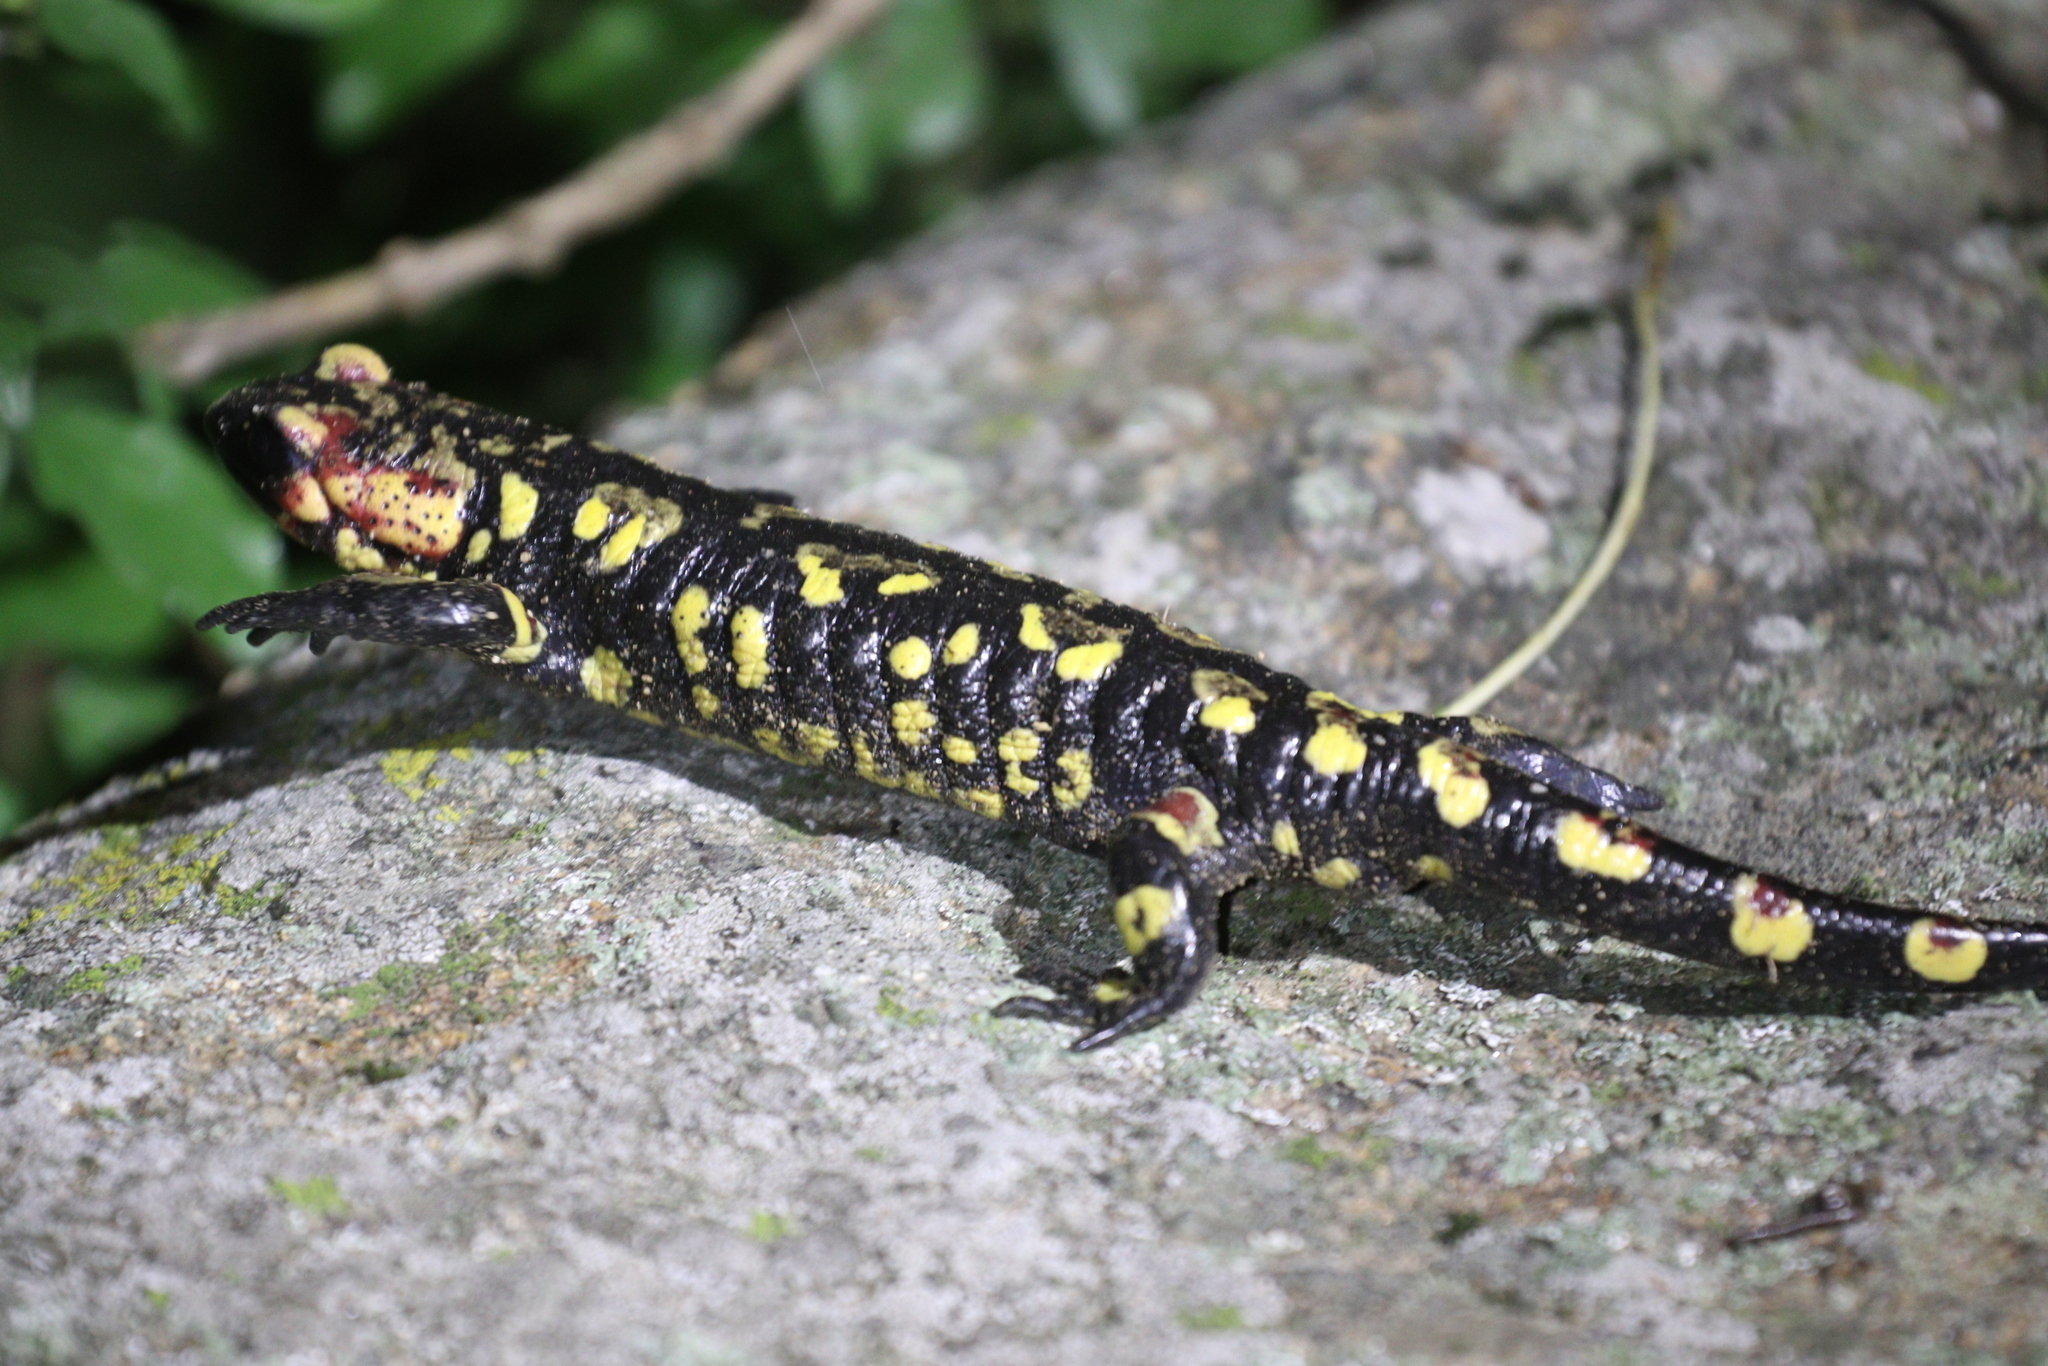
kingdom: Animalia
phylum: Chordata
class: Amphibia
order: Caudata
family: Salamandridae
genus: Salamandra
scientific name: Salamandra salamandra
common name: Fire salamander
